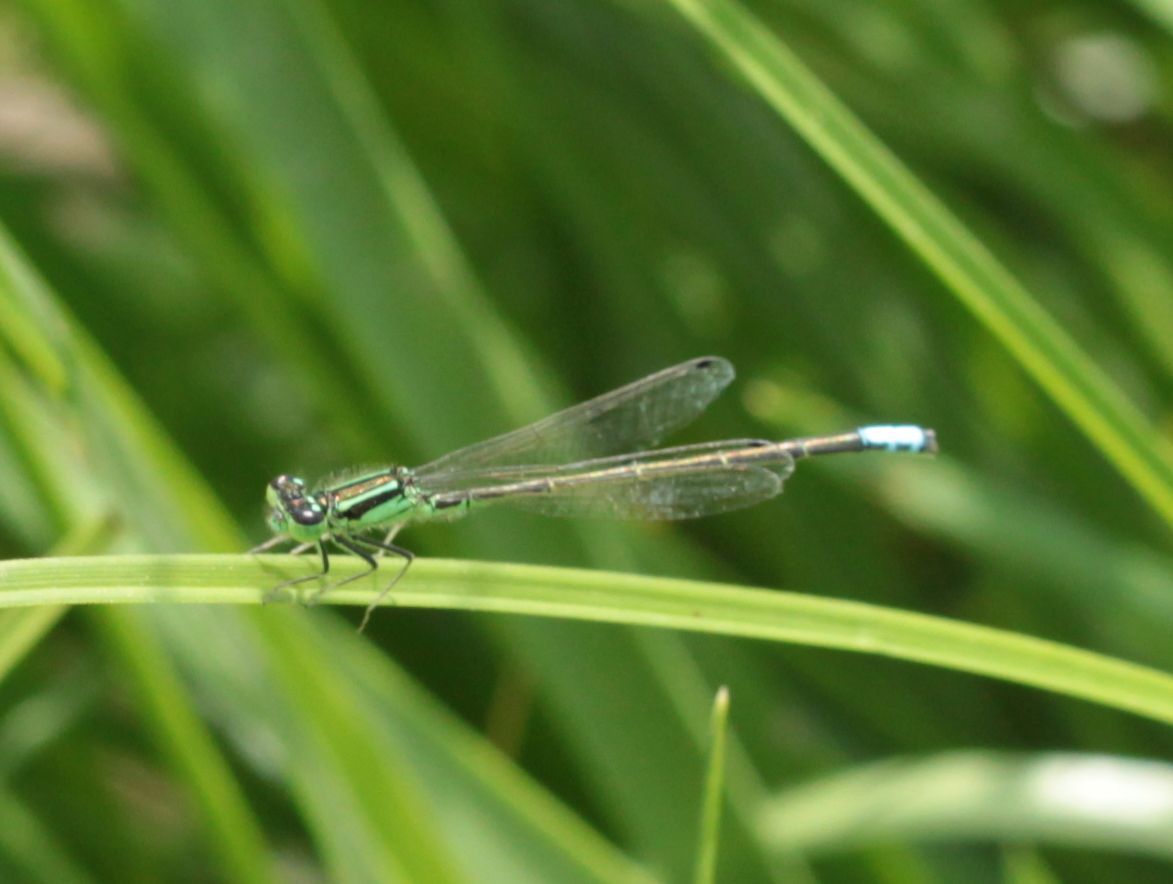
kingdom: Animalia
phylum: Arthropoda
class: Insecta
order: Odonata
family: Coenagrionidae
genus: Ischnura
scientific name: Ischnura verticalis
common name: Eastern forktail
